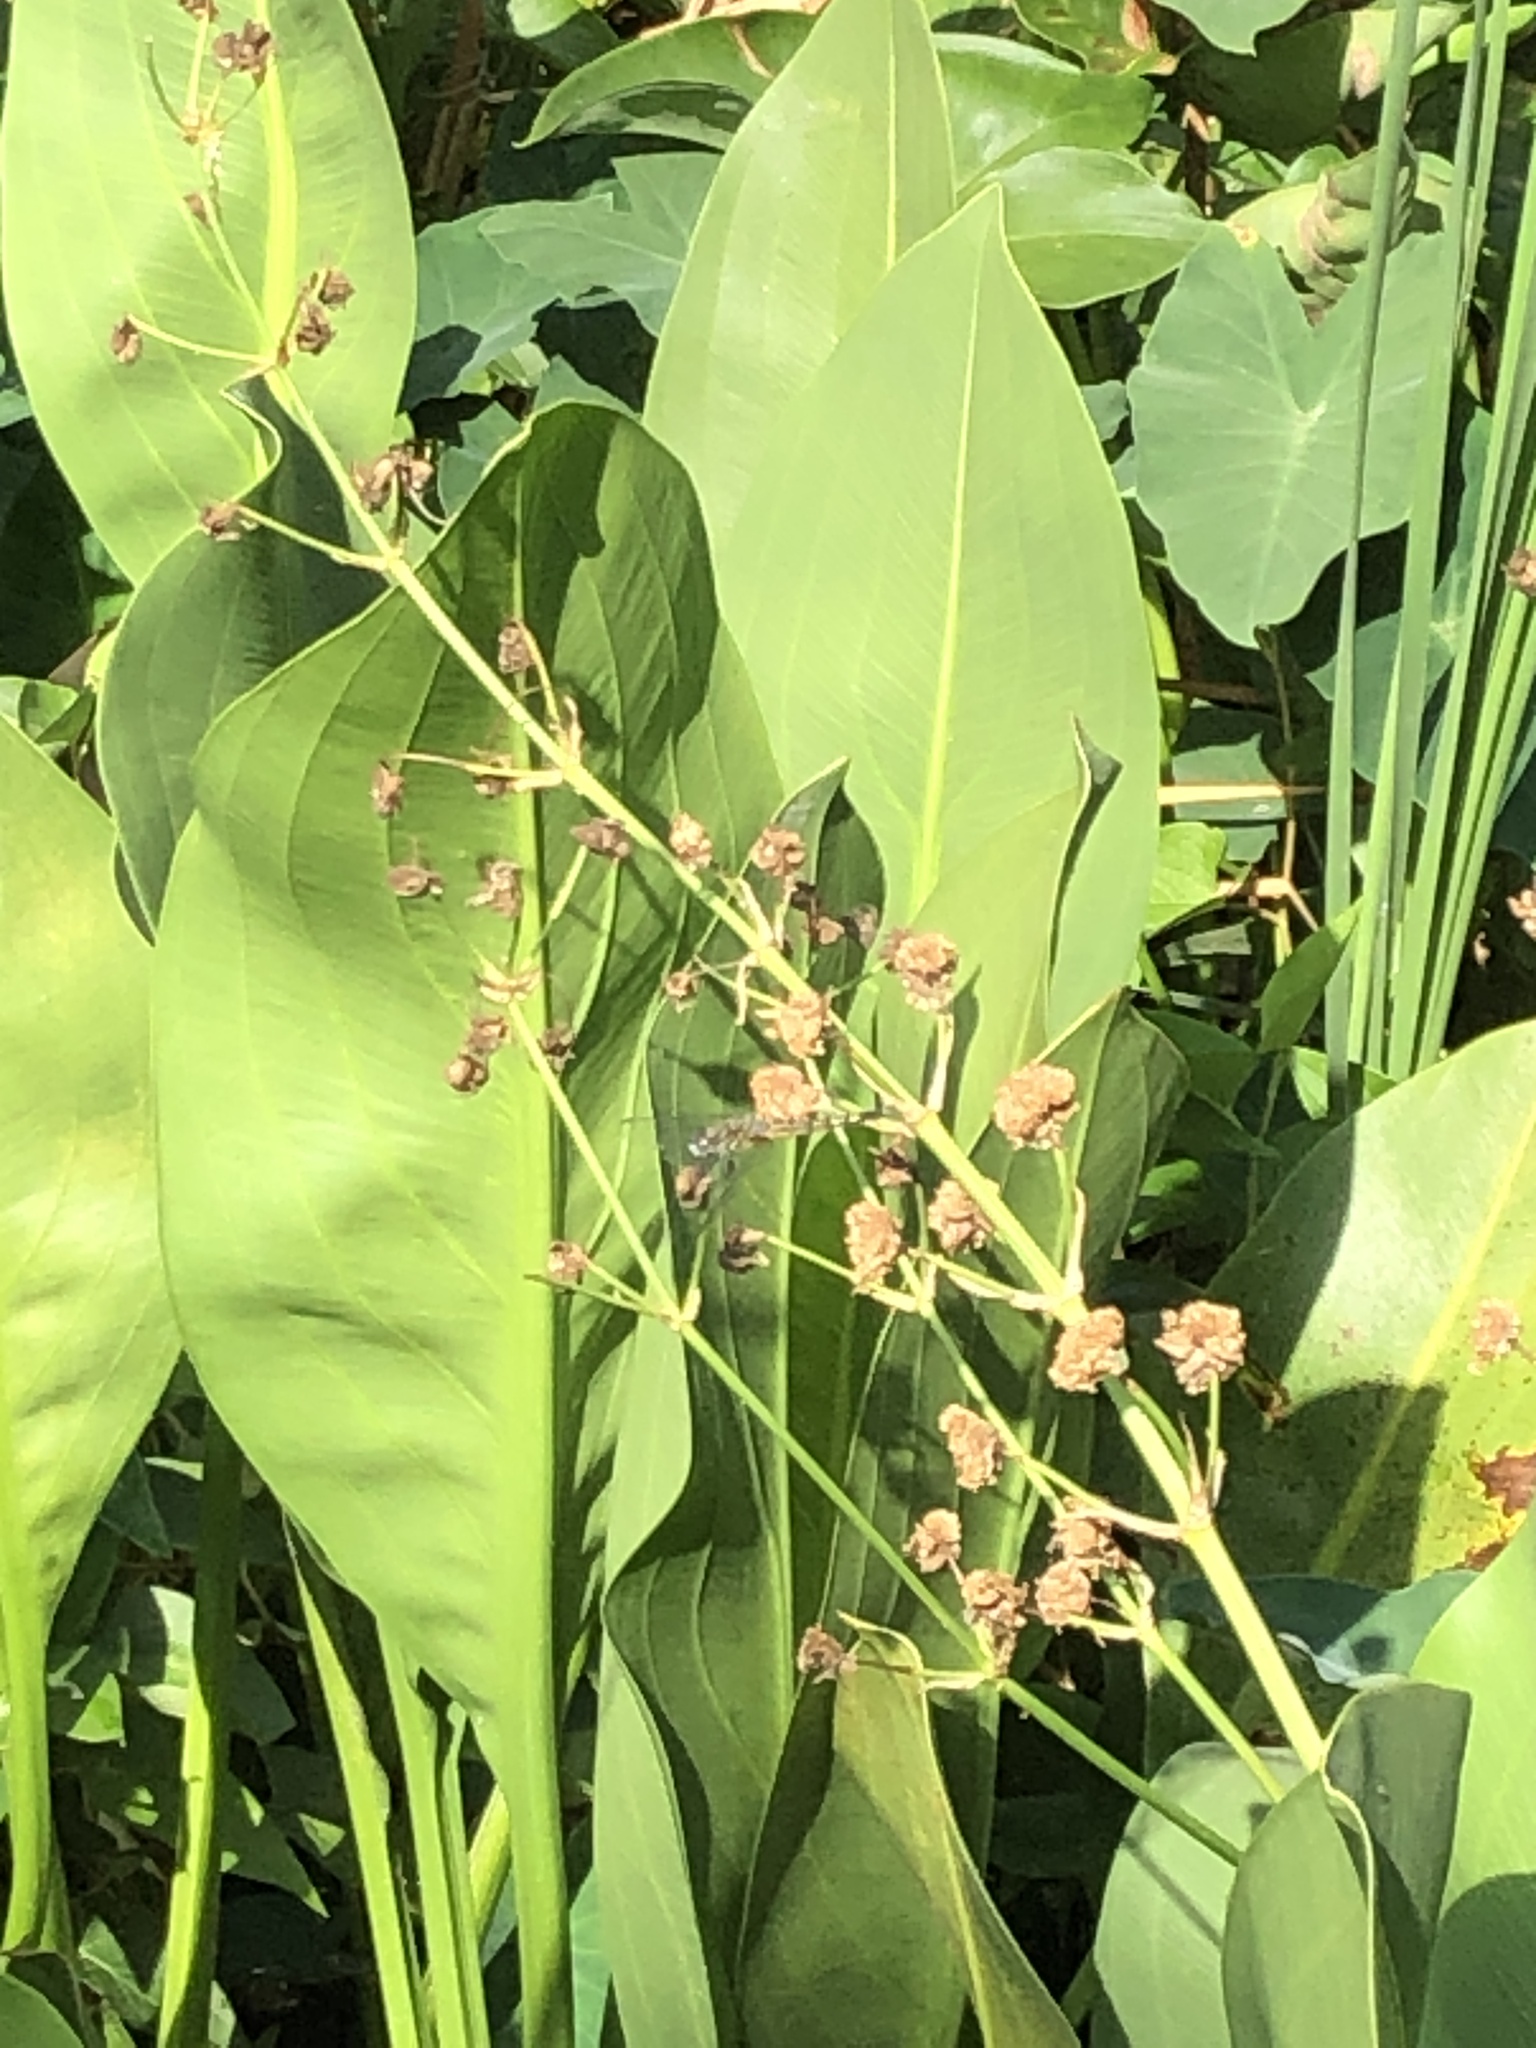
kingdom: Plantae
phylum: Tracheophyta
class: Liliopsida
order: Alismatales
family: Alismataceae
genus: Sagittaria
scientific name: Sagittaria lancifolia
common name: Lance-leaf arrowhead
